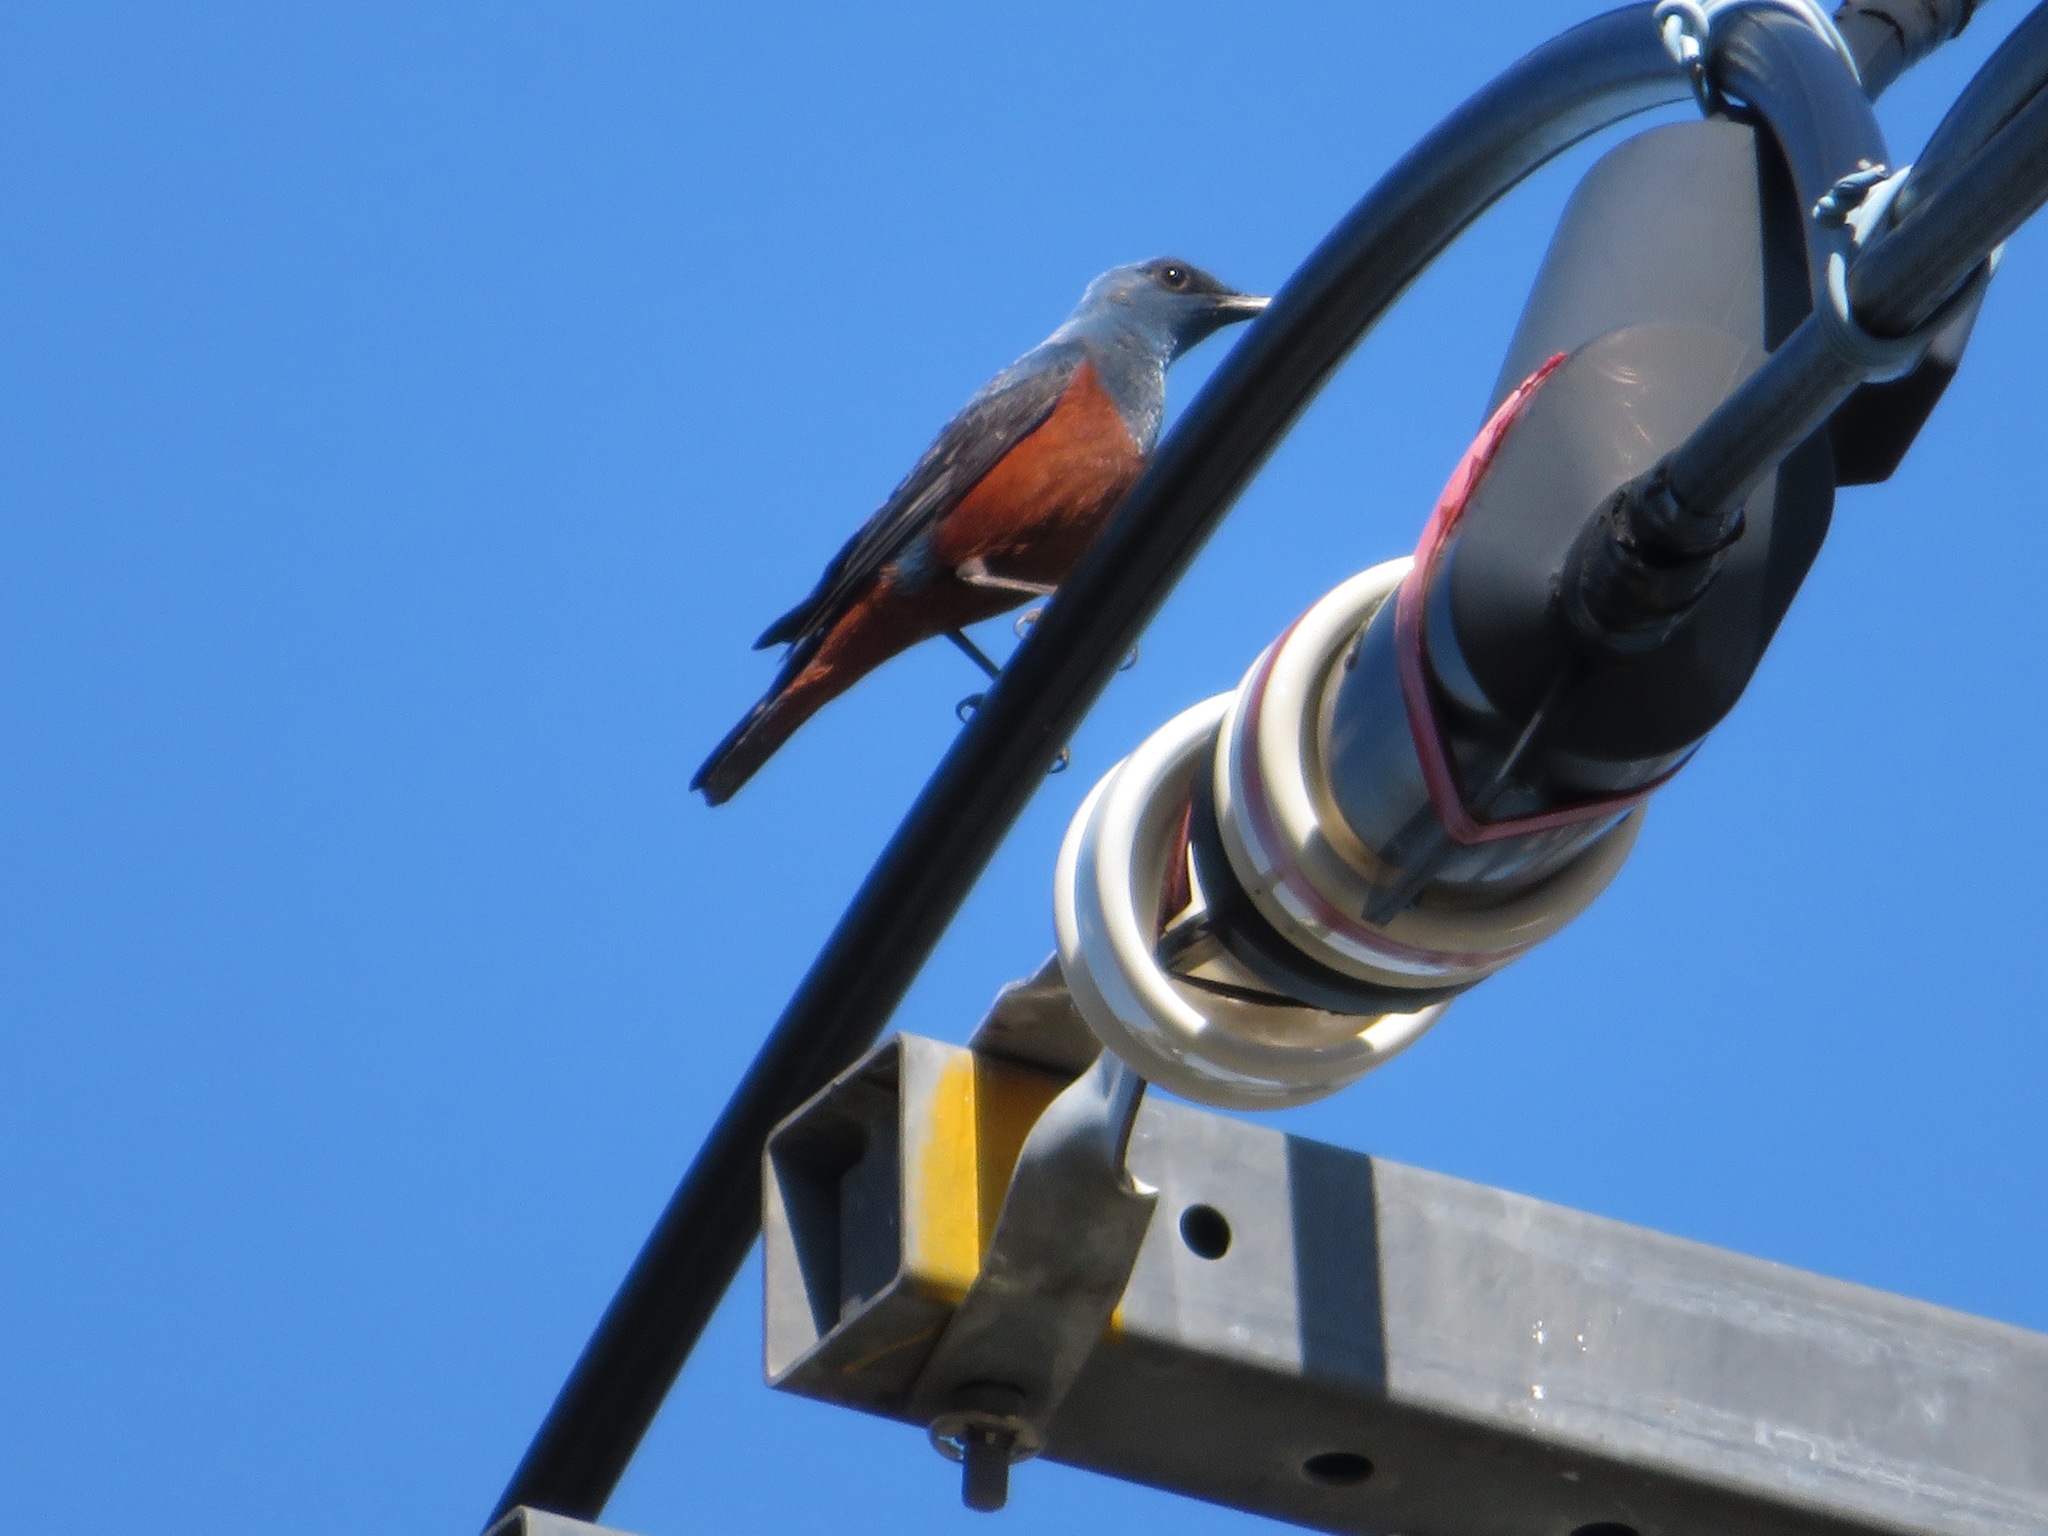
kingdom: Animalia
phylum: Chordata
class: Aves
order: Passeriformes
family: Muscicapidae
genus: Monticola
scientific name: Monticola solitarius
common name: Blue rock thrush
